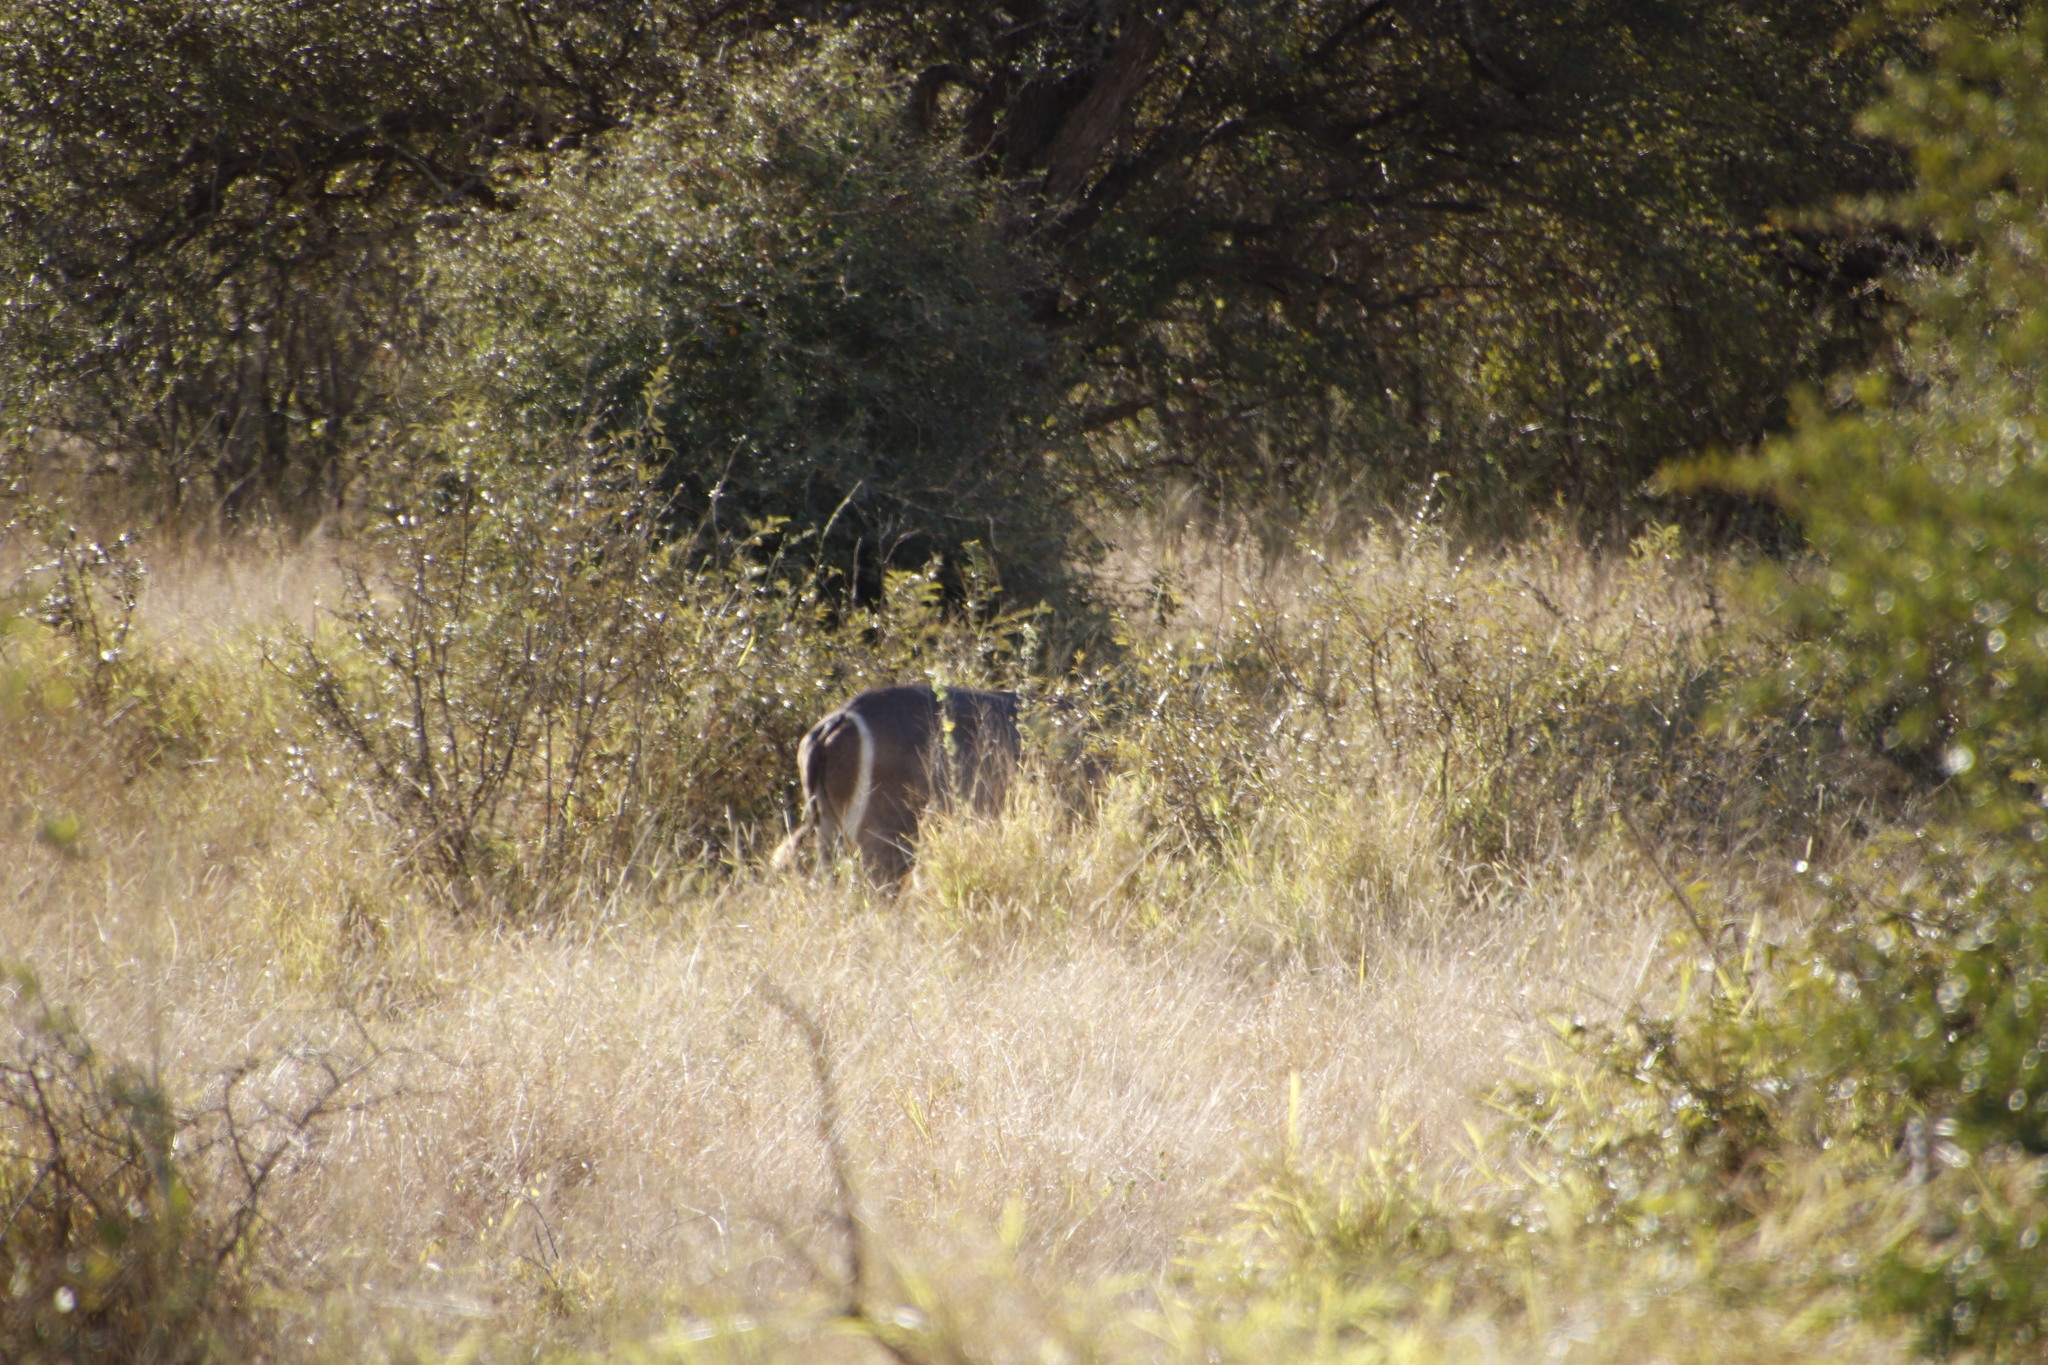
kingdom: Animalia
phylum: Chordata
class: Mammalia
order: Artiodactyla
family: Bovidae
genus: Kobus
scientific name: Kobus ellipsiprymnus
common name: Waterbuck
